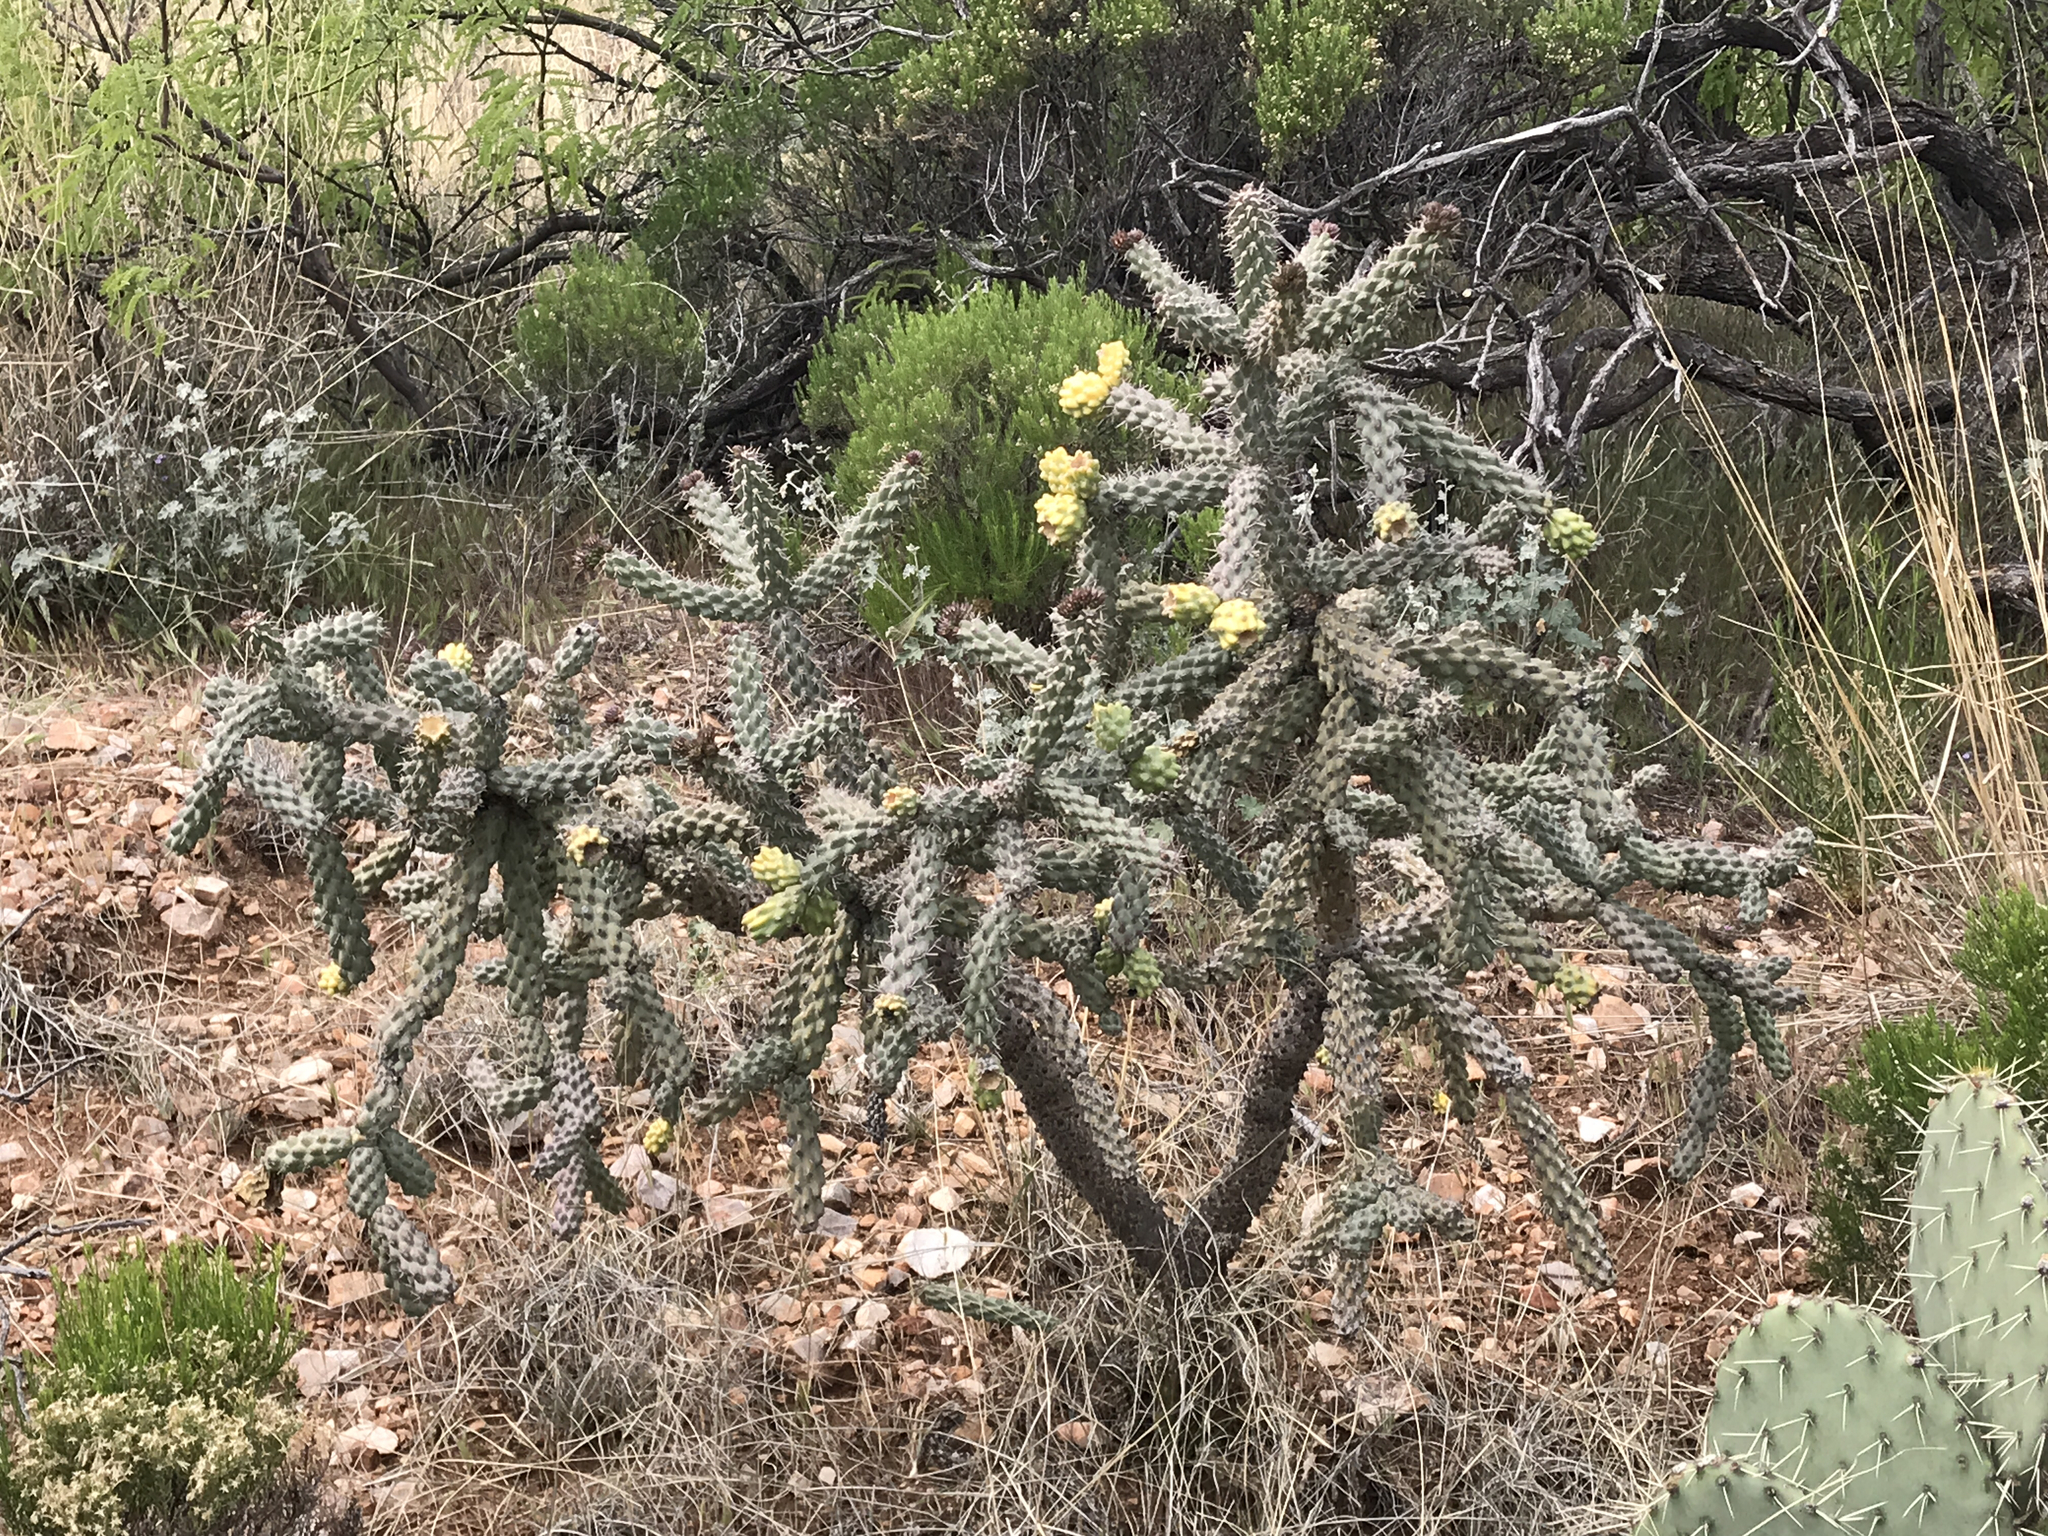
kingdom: Plantae
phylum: Tracheophyta
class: Magnoliopsida
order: Caryophyllales
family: Cactaceae
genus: Cylindropuntia
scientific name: Cylindropuntia thurberi
